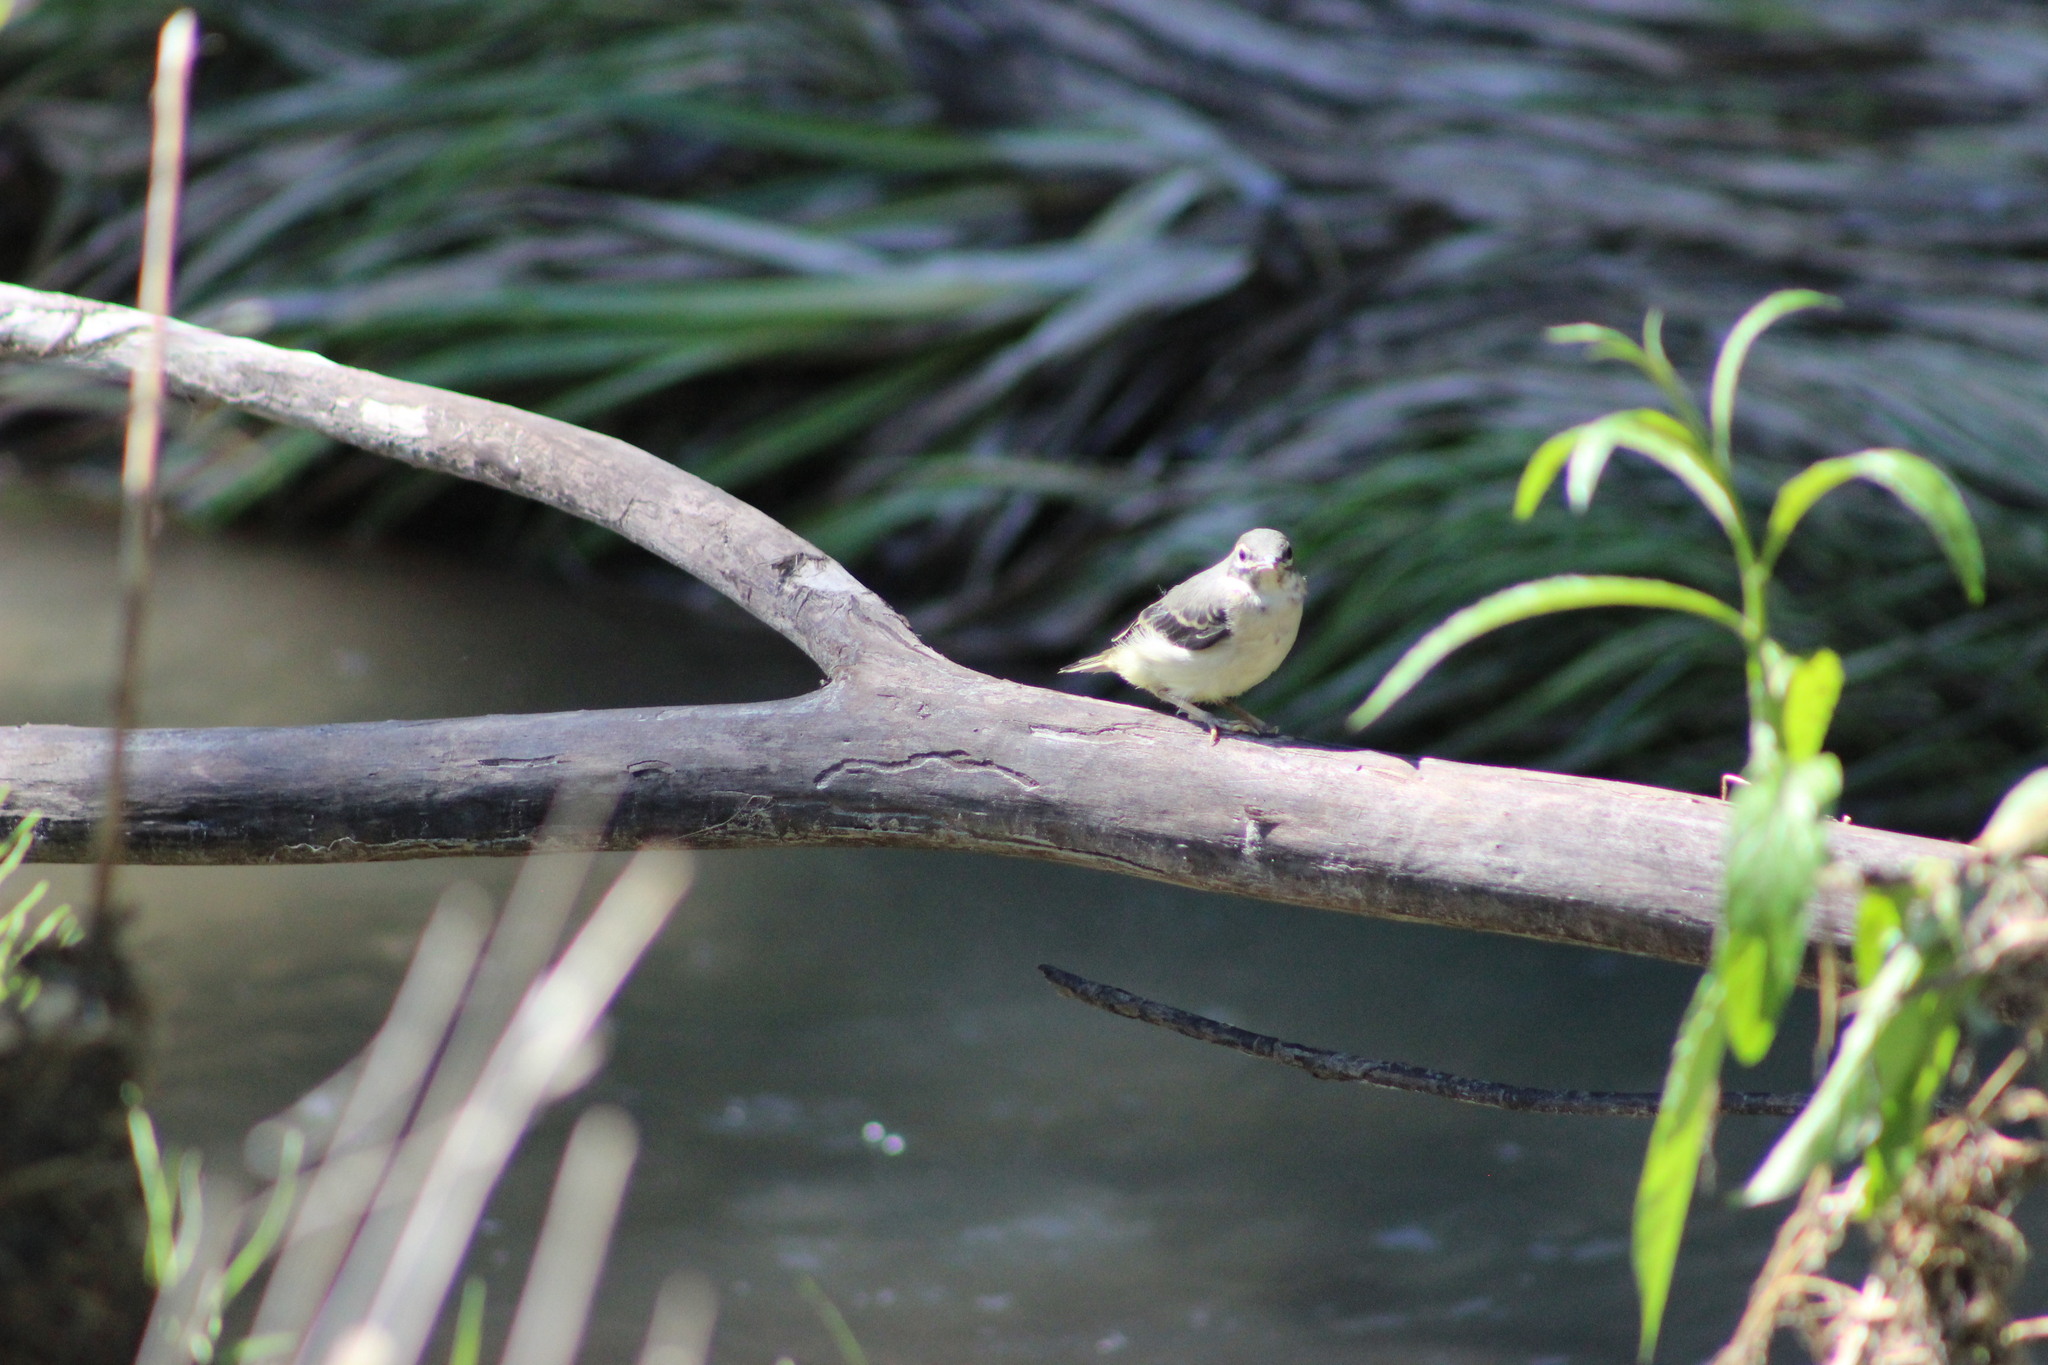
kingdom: Animalia
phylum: Chordata
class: Aves
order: Passeriformes
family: Motacillidae
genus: Motacilla
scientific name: Motacilla cinerea
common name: Grey wagtail
